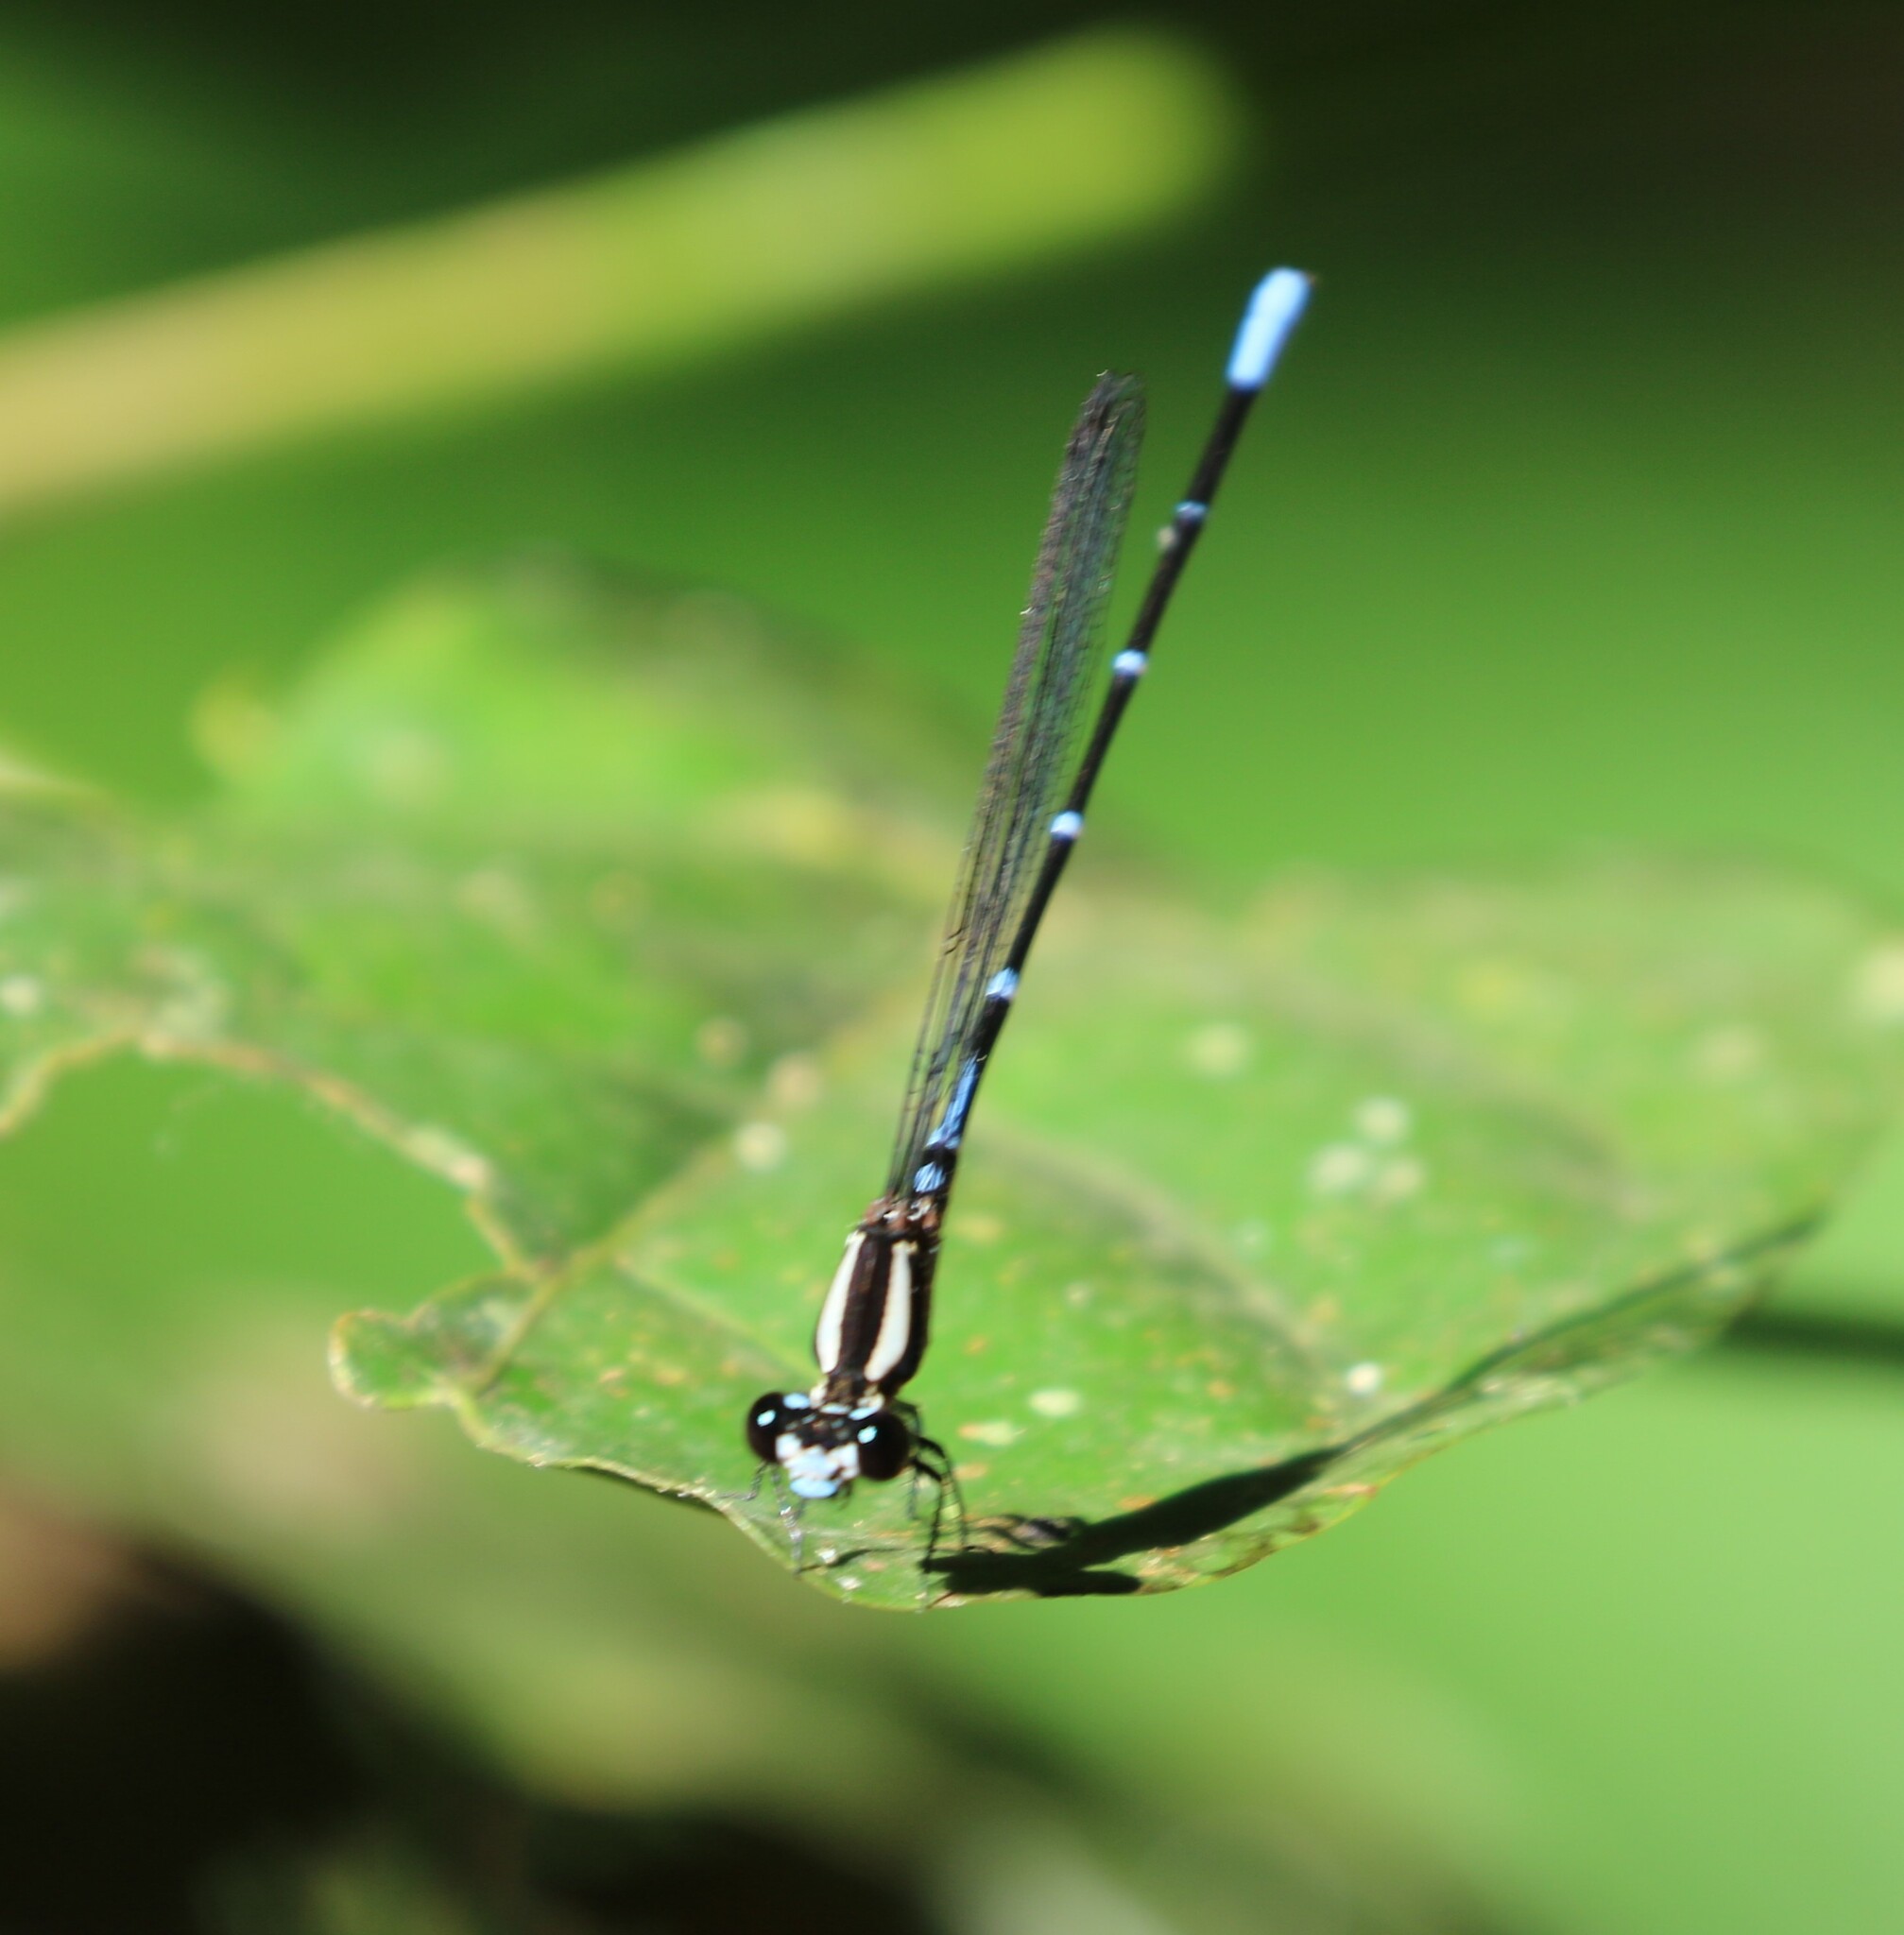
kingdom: Animalia
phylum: Arthropoda
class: Insecta
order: Odonata
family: Coenagrionidae
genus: Argia
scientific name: Argia oculata
